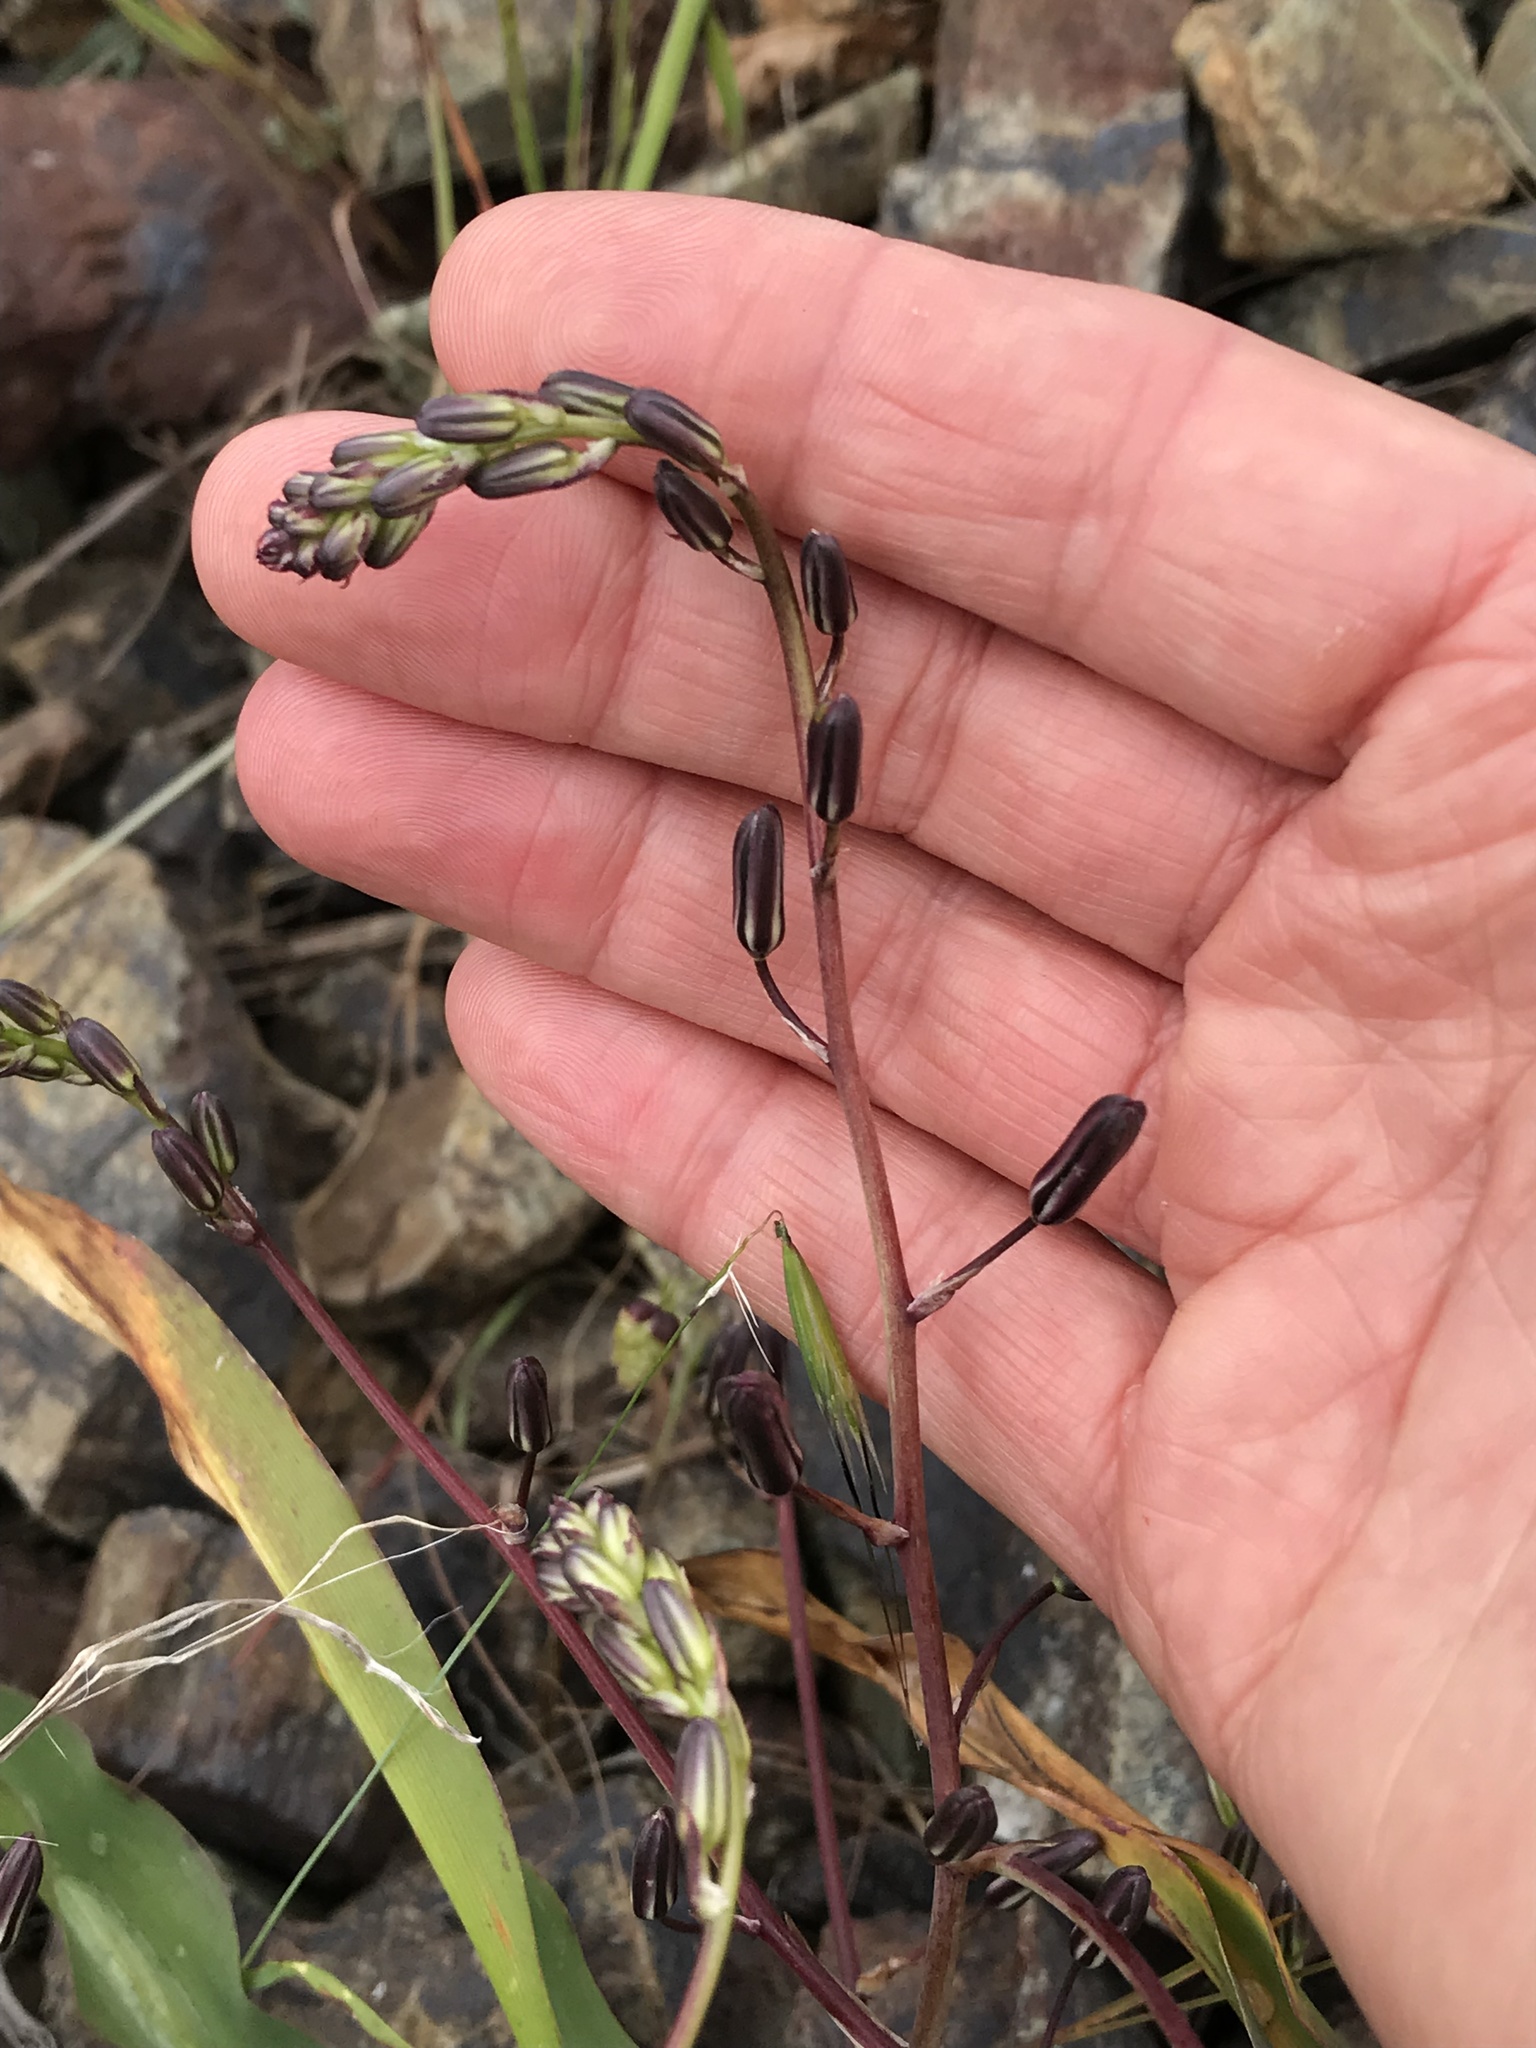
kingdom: Plantae
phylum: Tracheophyta
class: Liliopsida
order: Asparagales
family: Asparagaceae
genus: Chlorogalum
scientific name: Chlorogalum pomeridianum
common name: Amole
